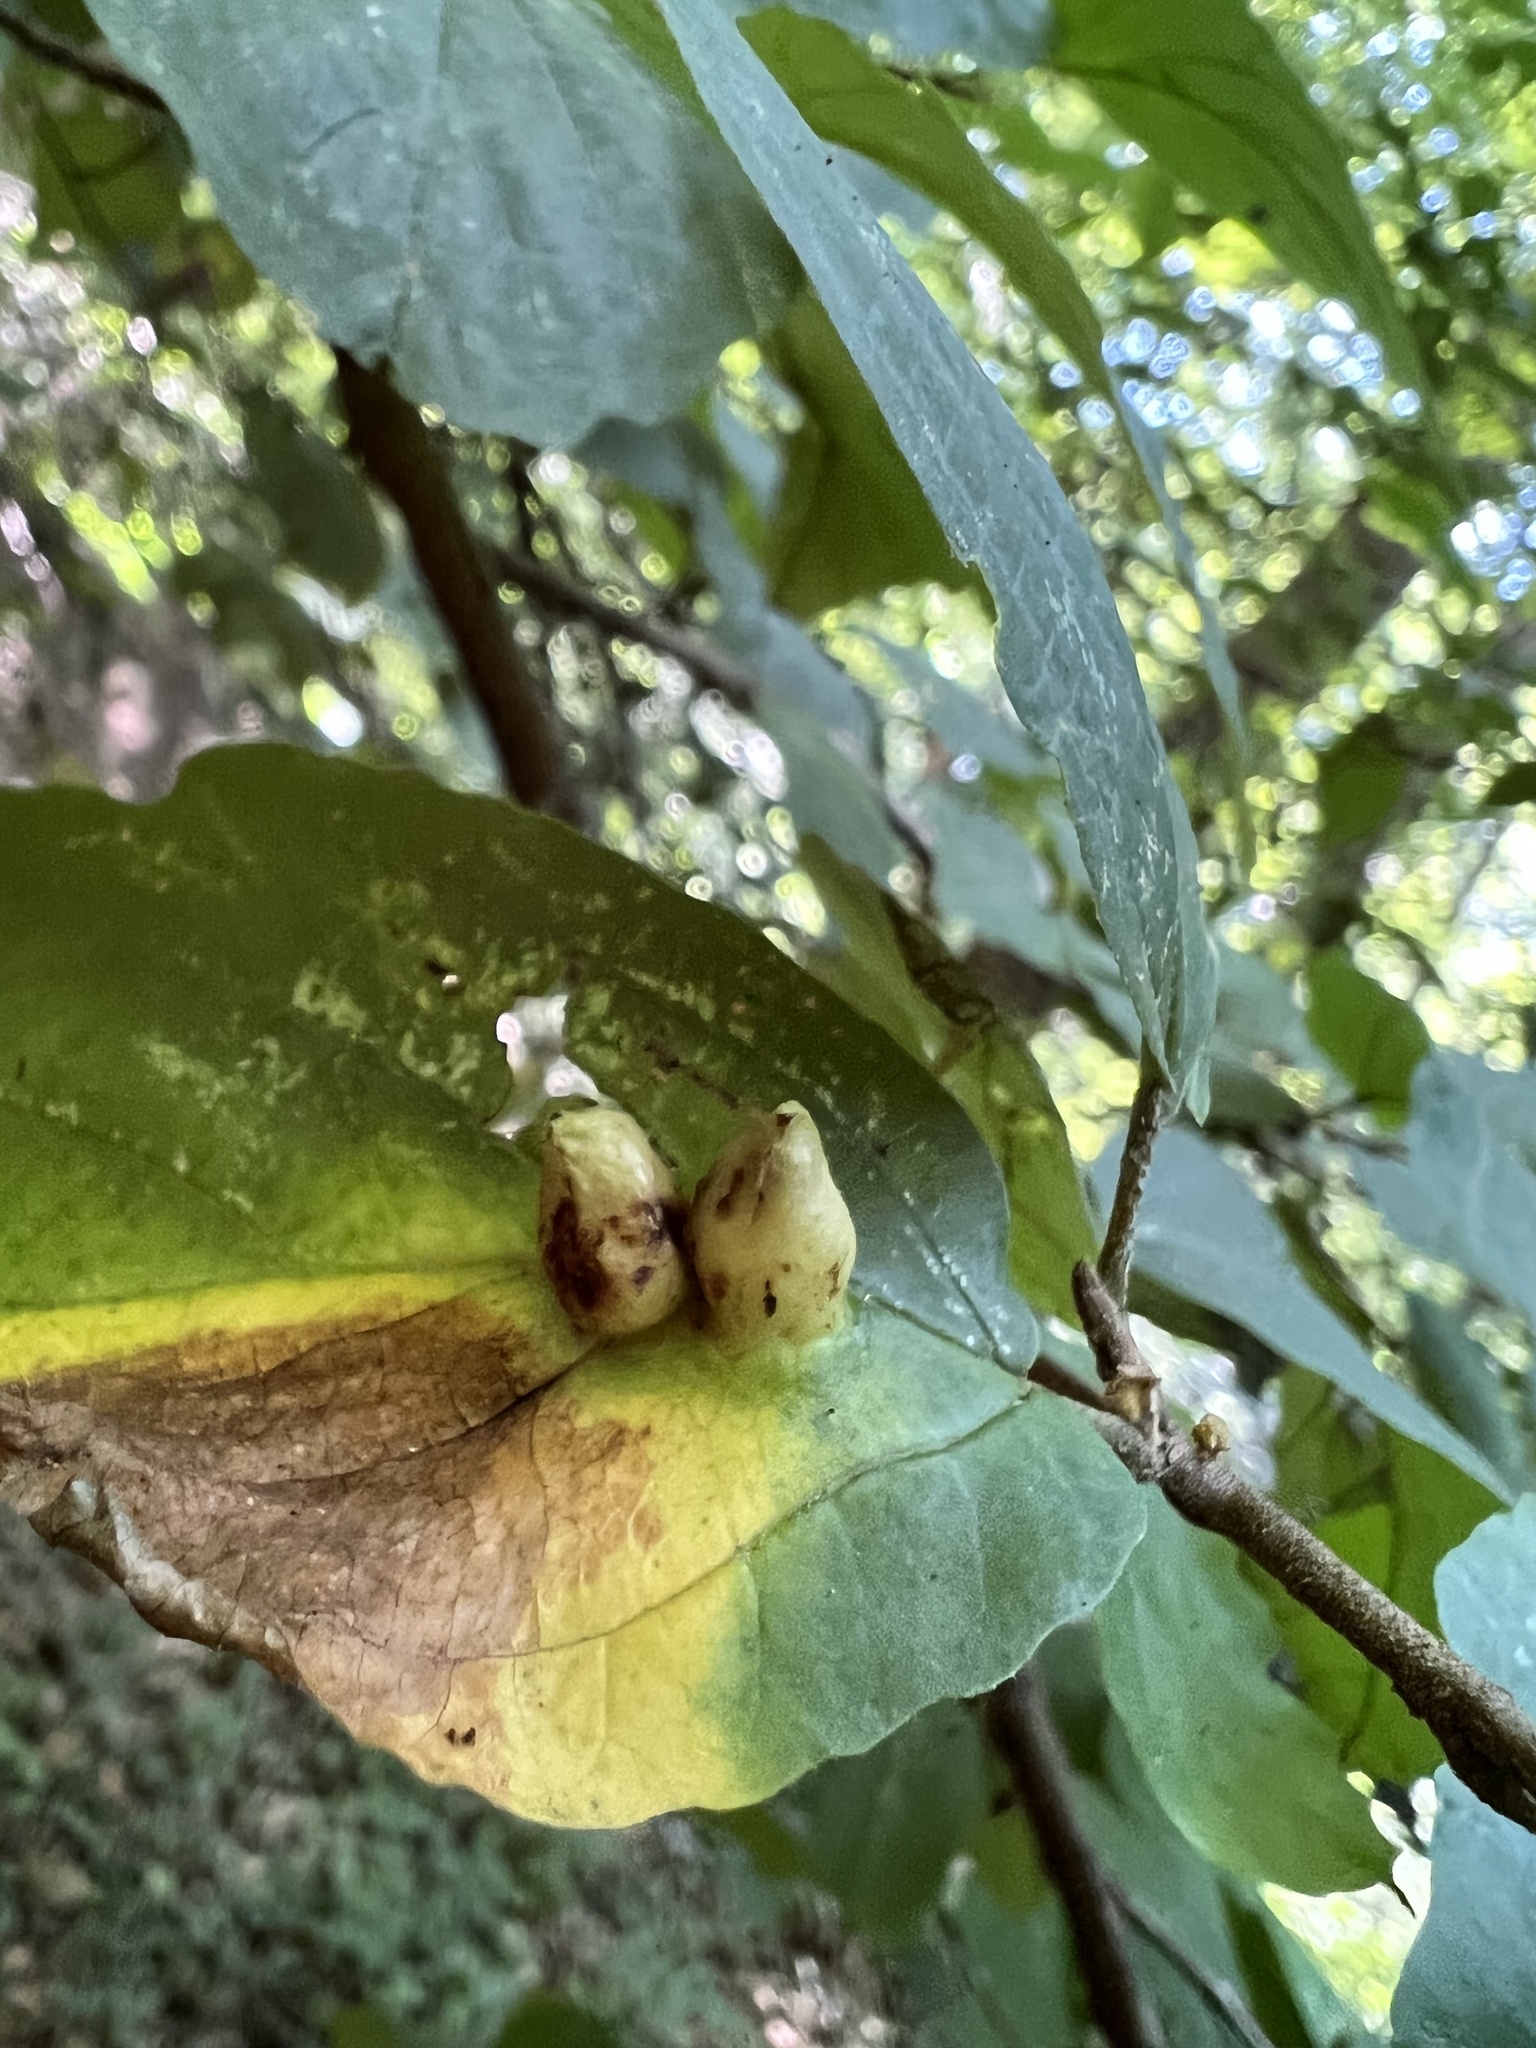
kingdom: Animalia
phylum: Arthropoda
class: Insecta
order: Hemiptera
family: Aphididae
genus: Hormaphis
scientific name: Hormaphis hamamelidis
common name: Witch-hazel cone gall aphid
